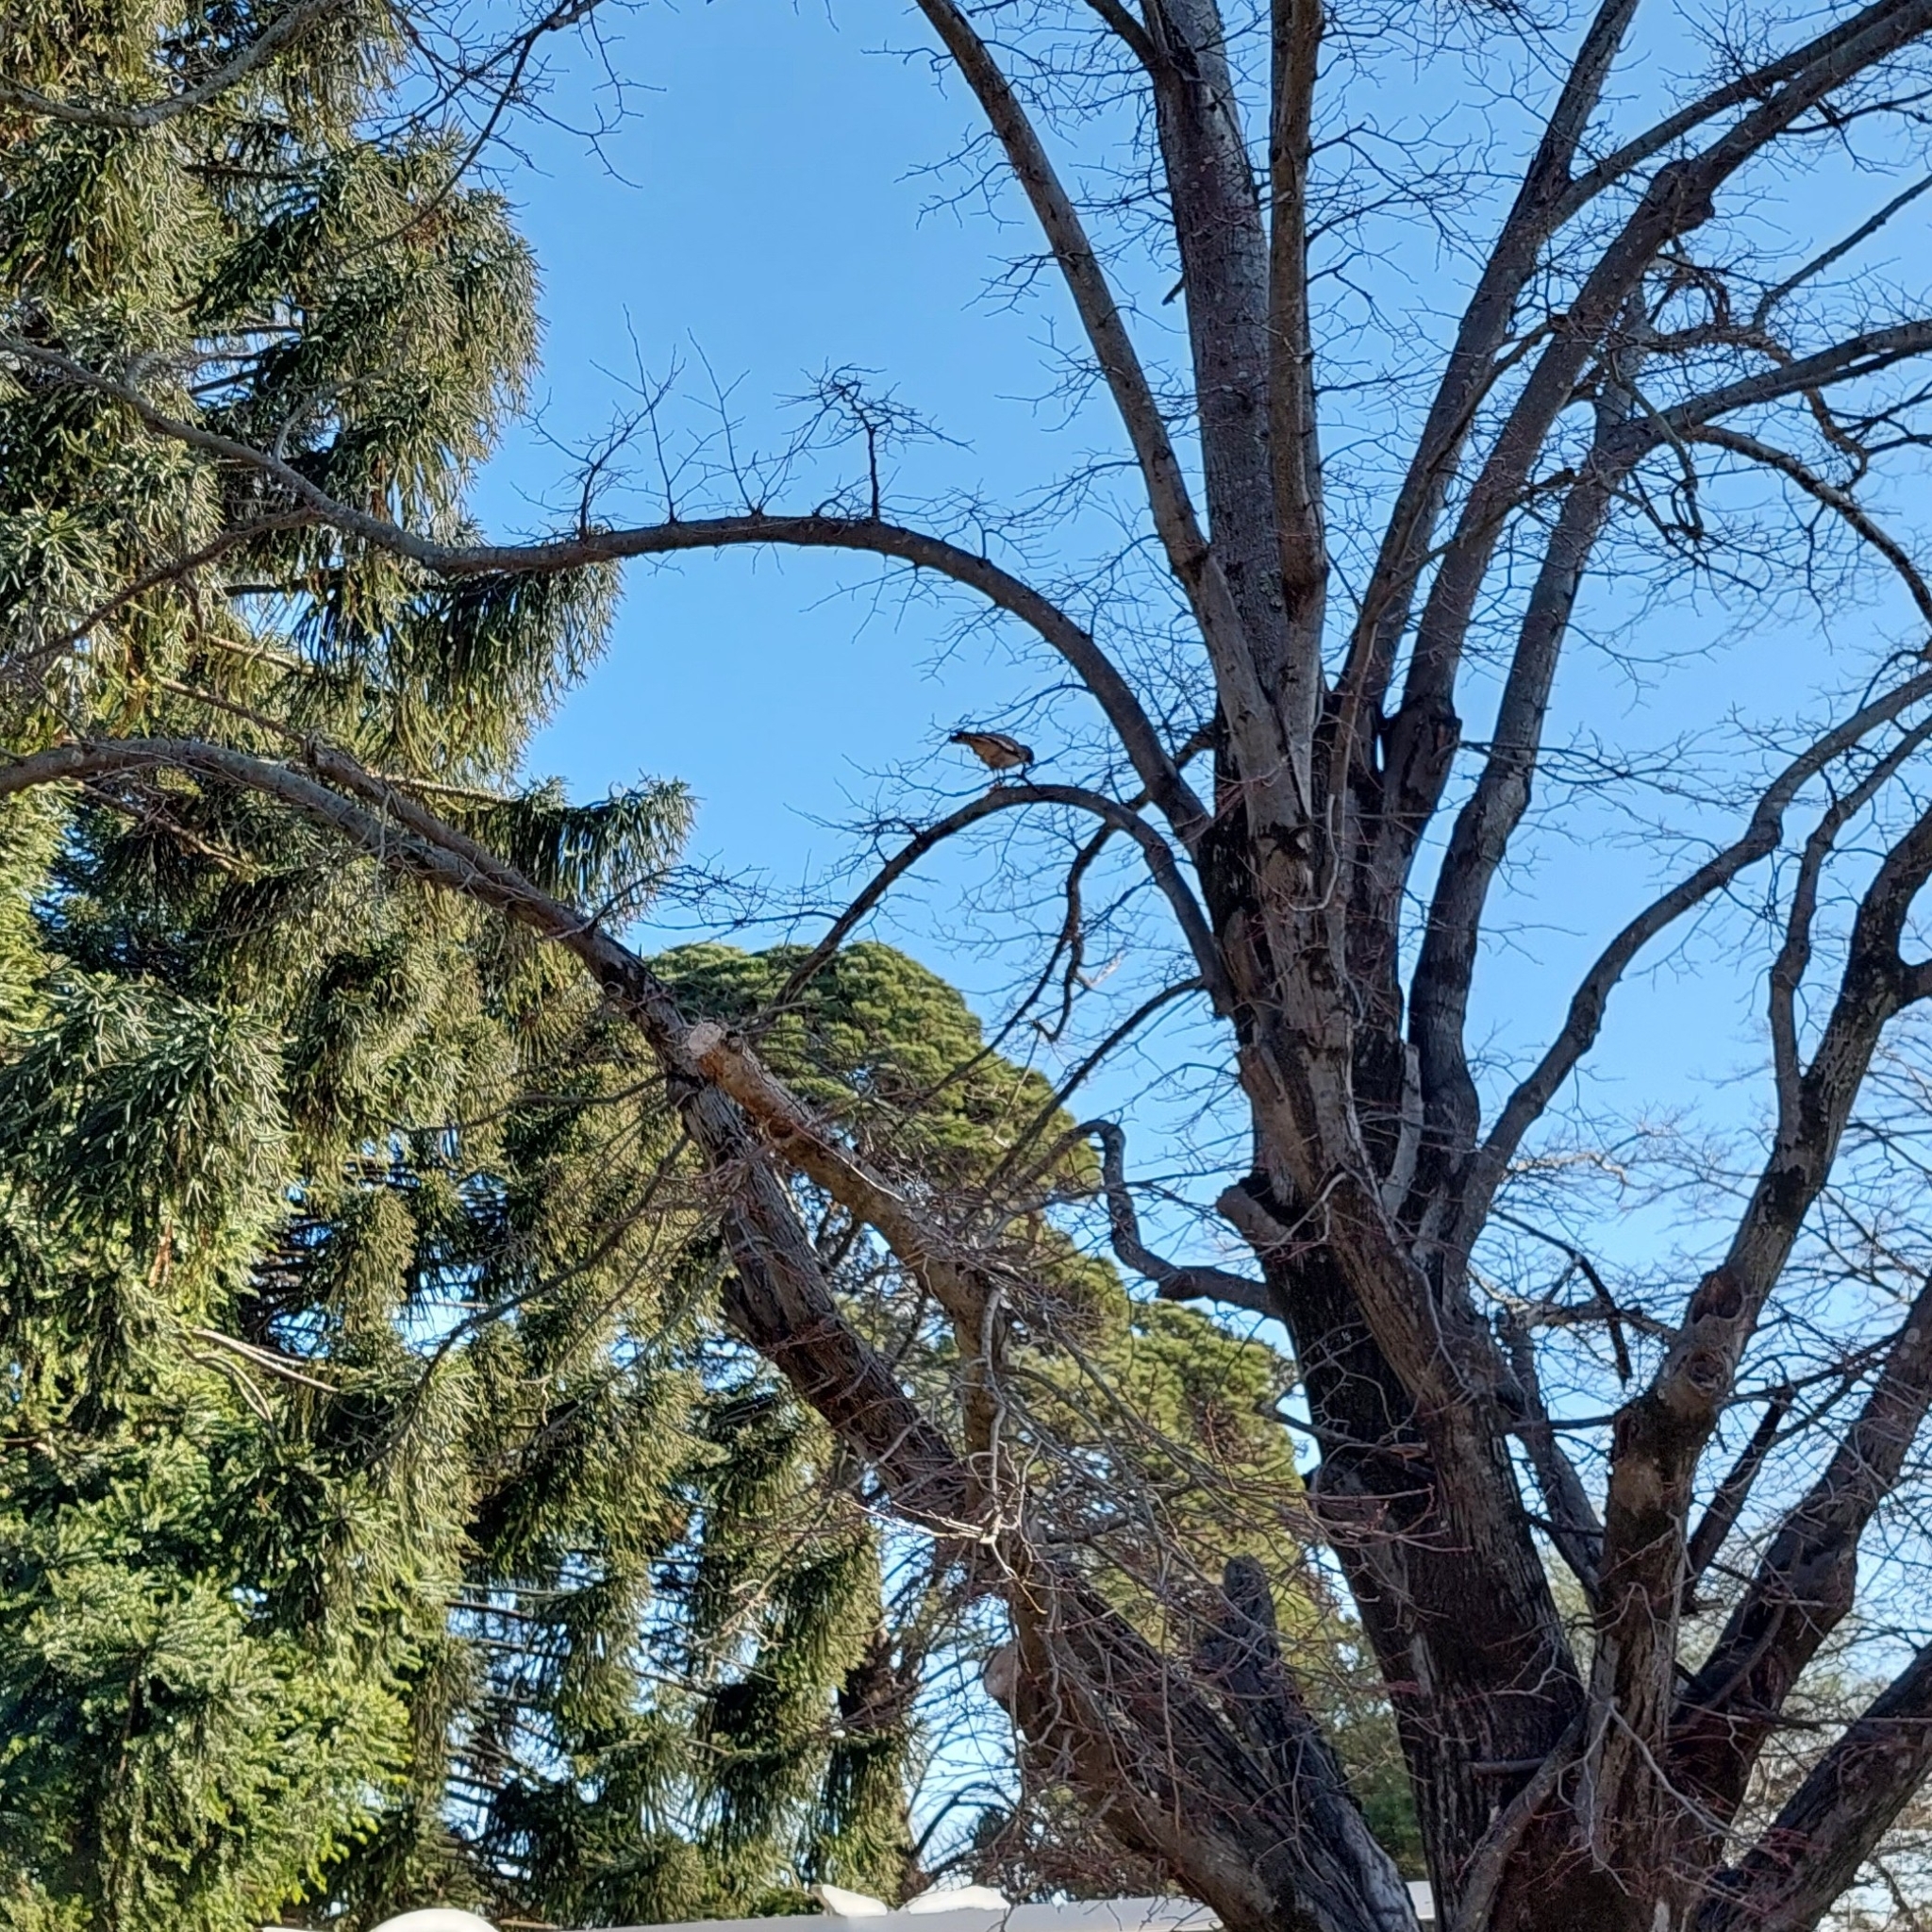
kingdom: Animalia
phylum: Chordata
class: Aves
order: Falconiformes
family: Falconidae
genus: Daptrius
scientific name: Daptrius
